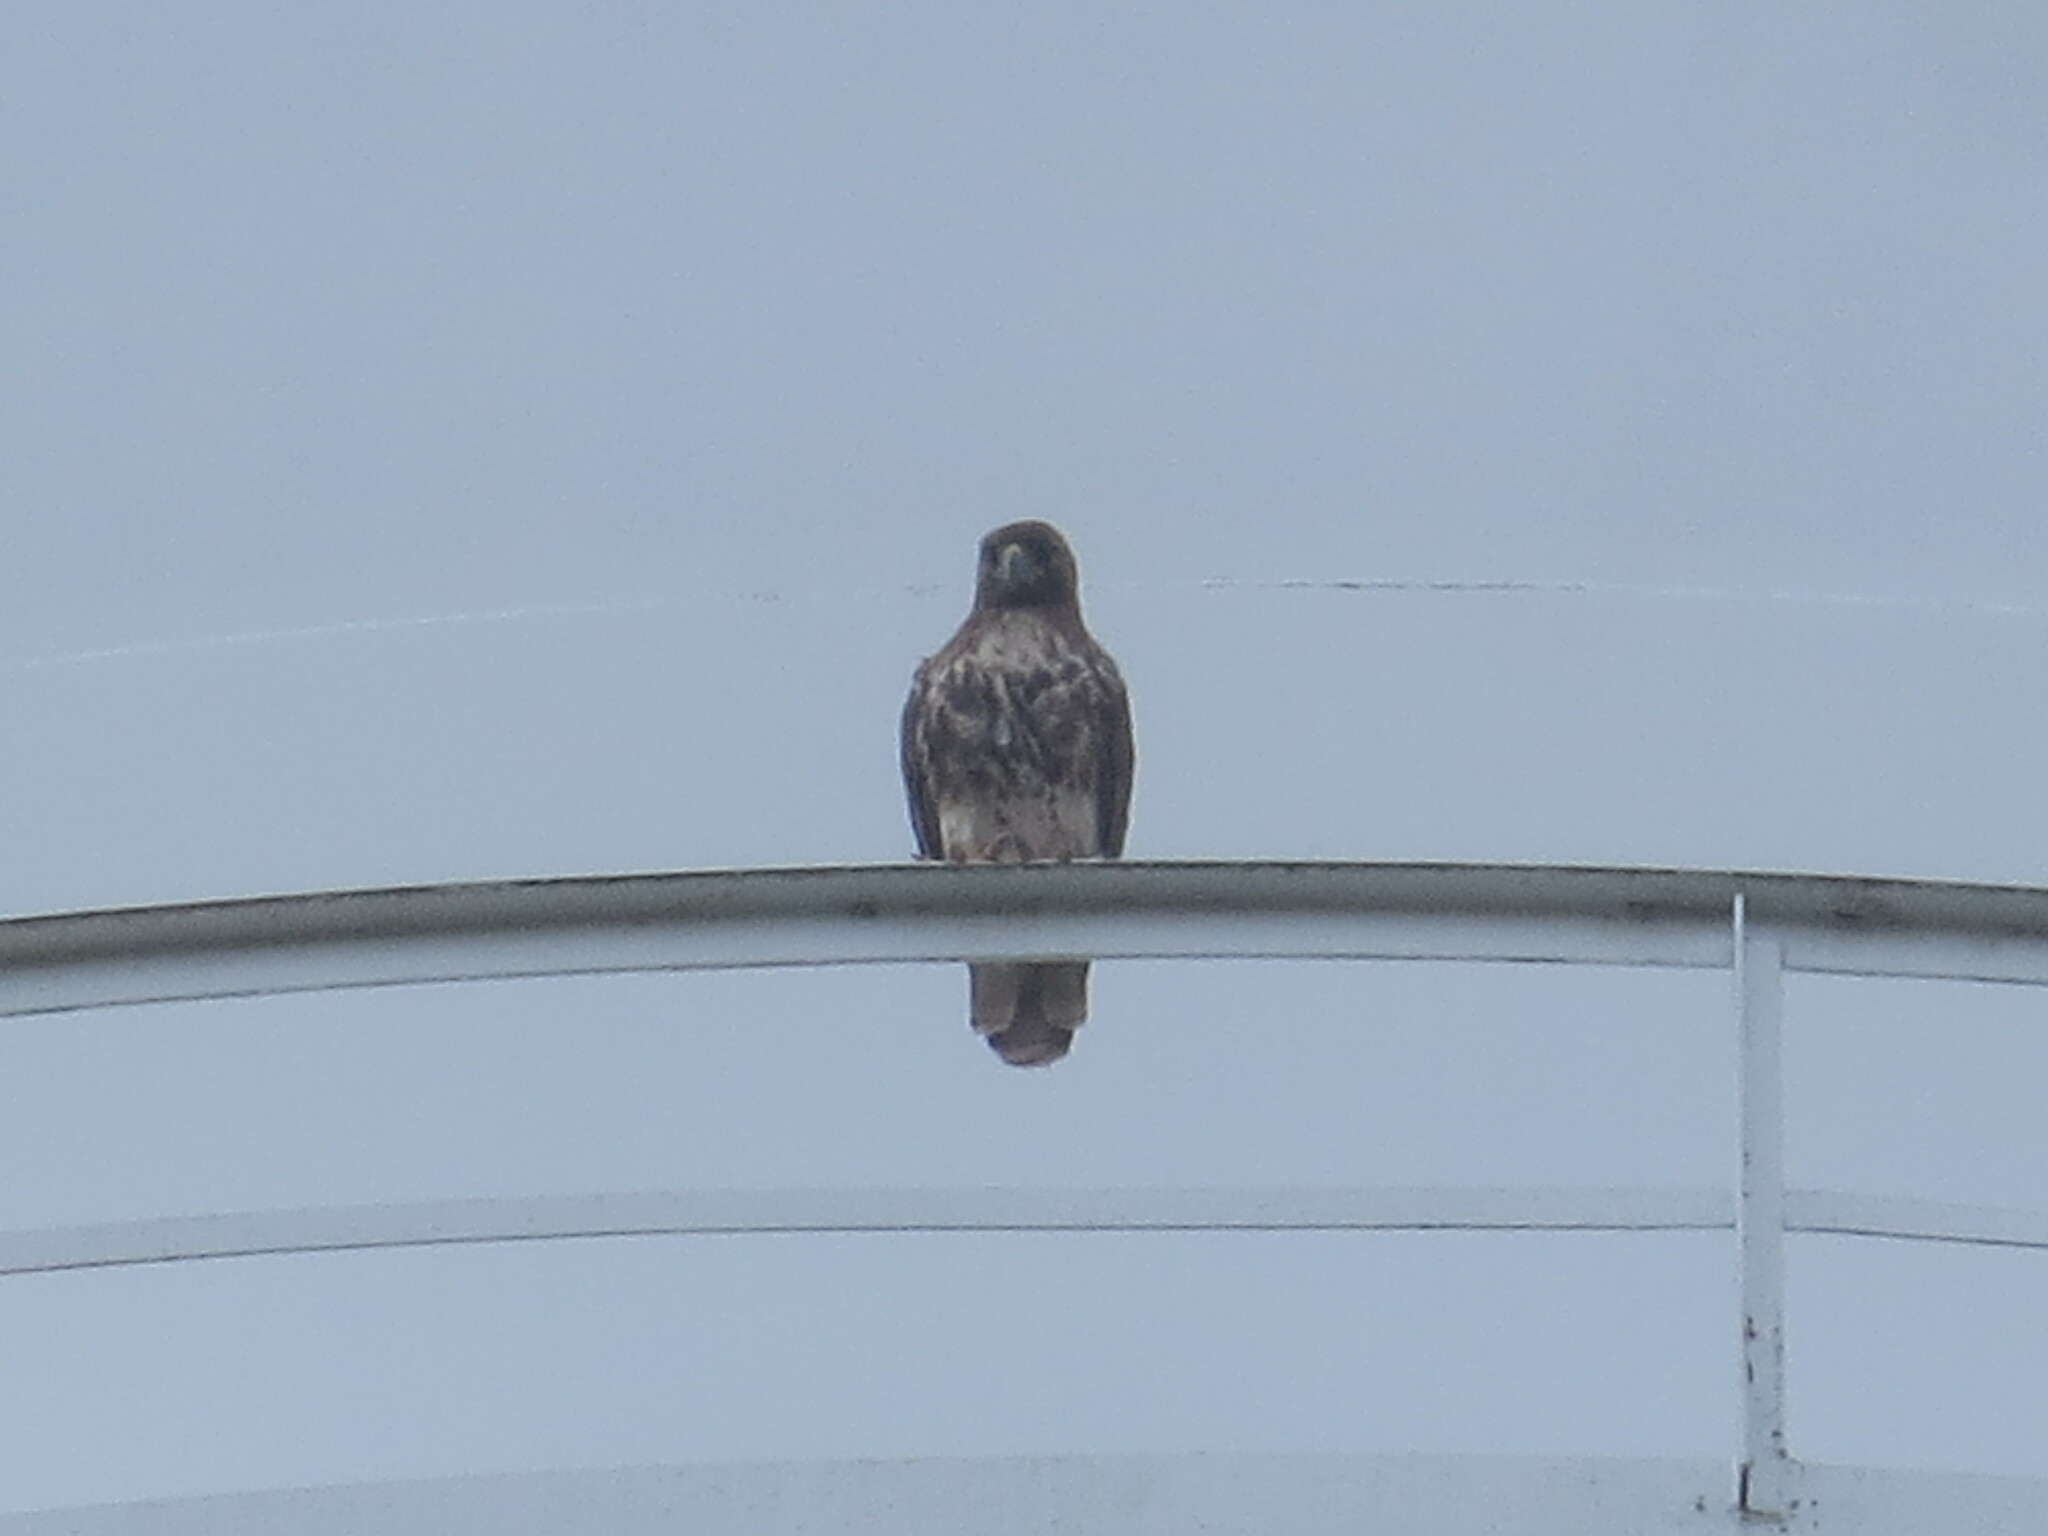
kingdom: Animalia
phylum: Chordata
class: Aves
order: Accipitriformes
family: Accipitridae
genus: Buteo
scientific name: Buteo jamaicensis
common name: Red-tailed hawk
